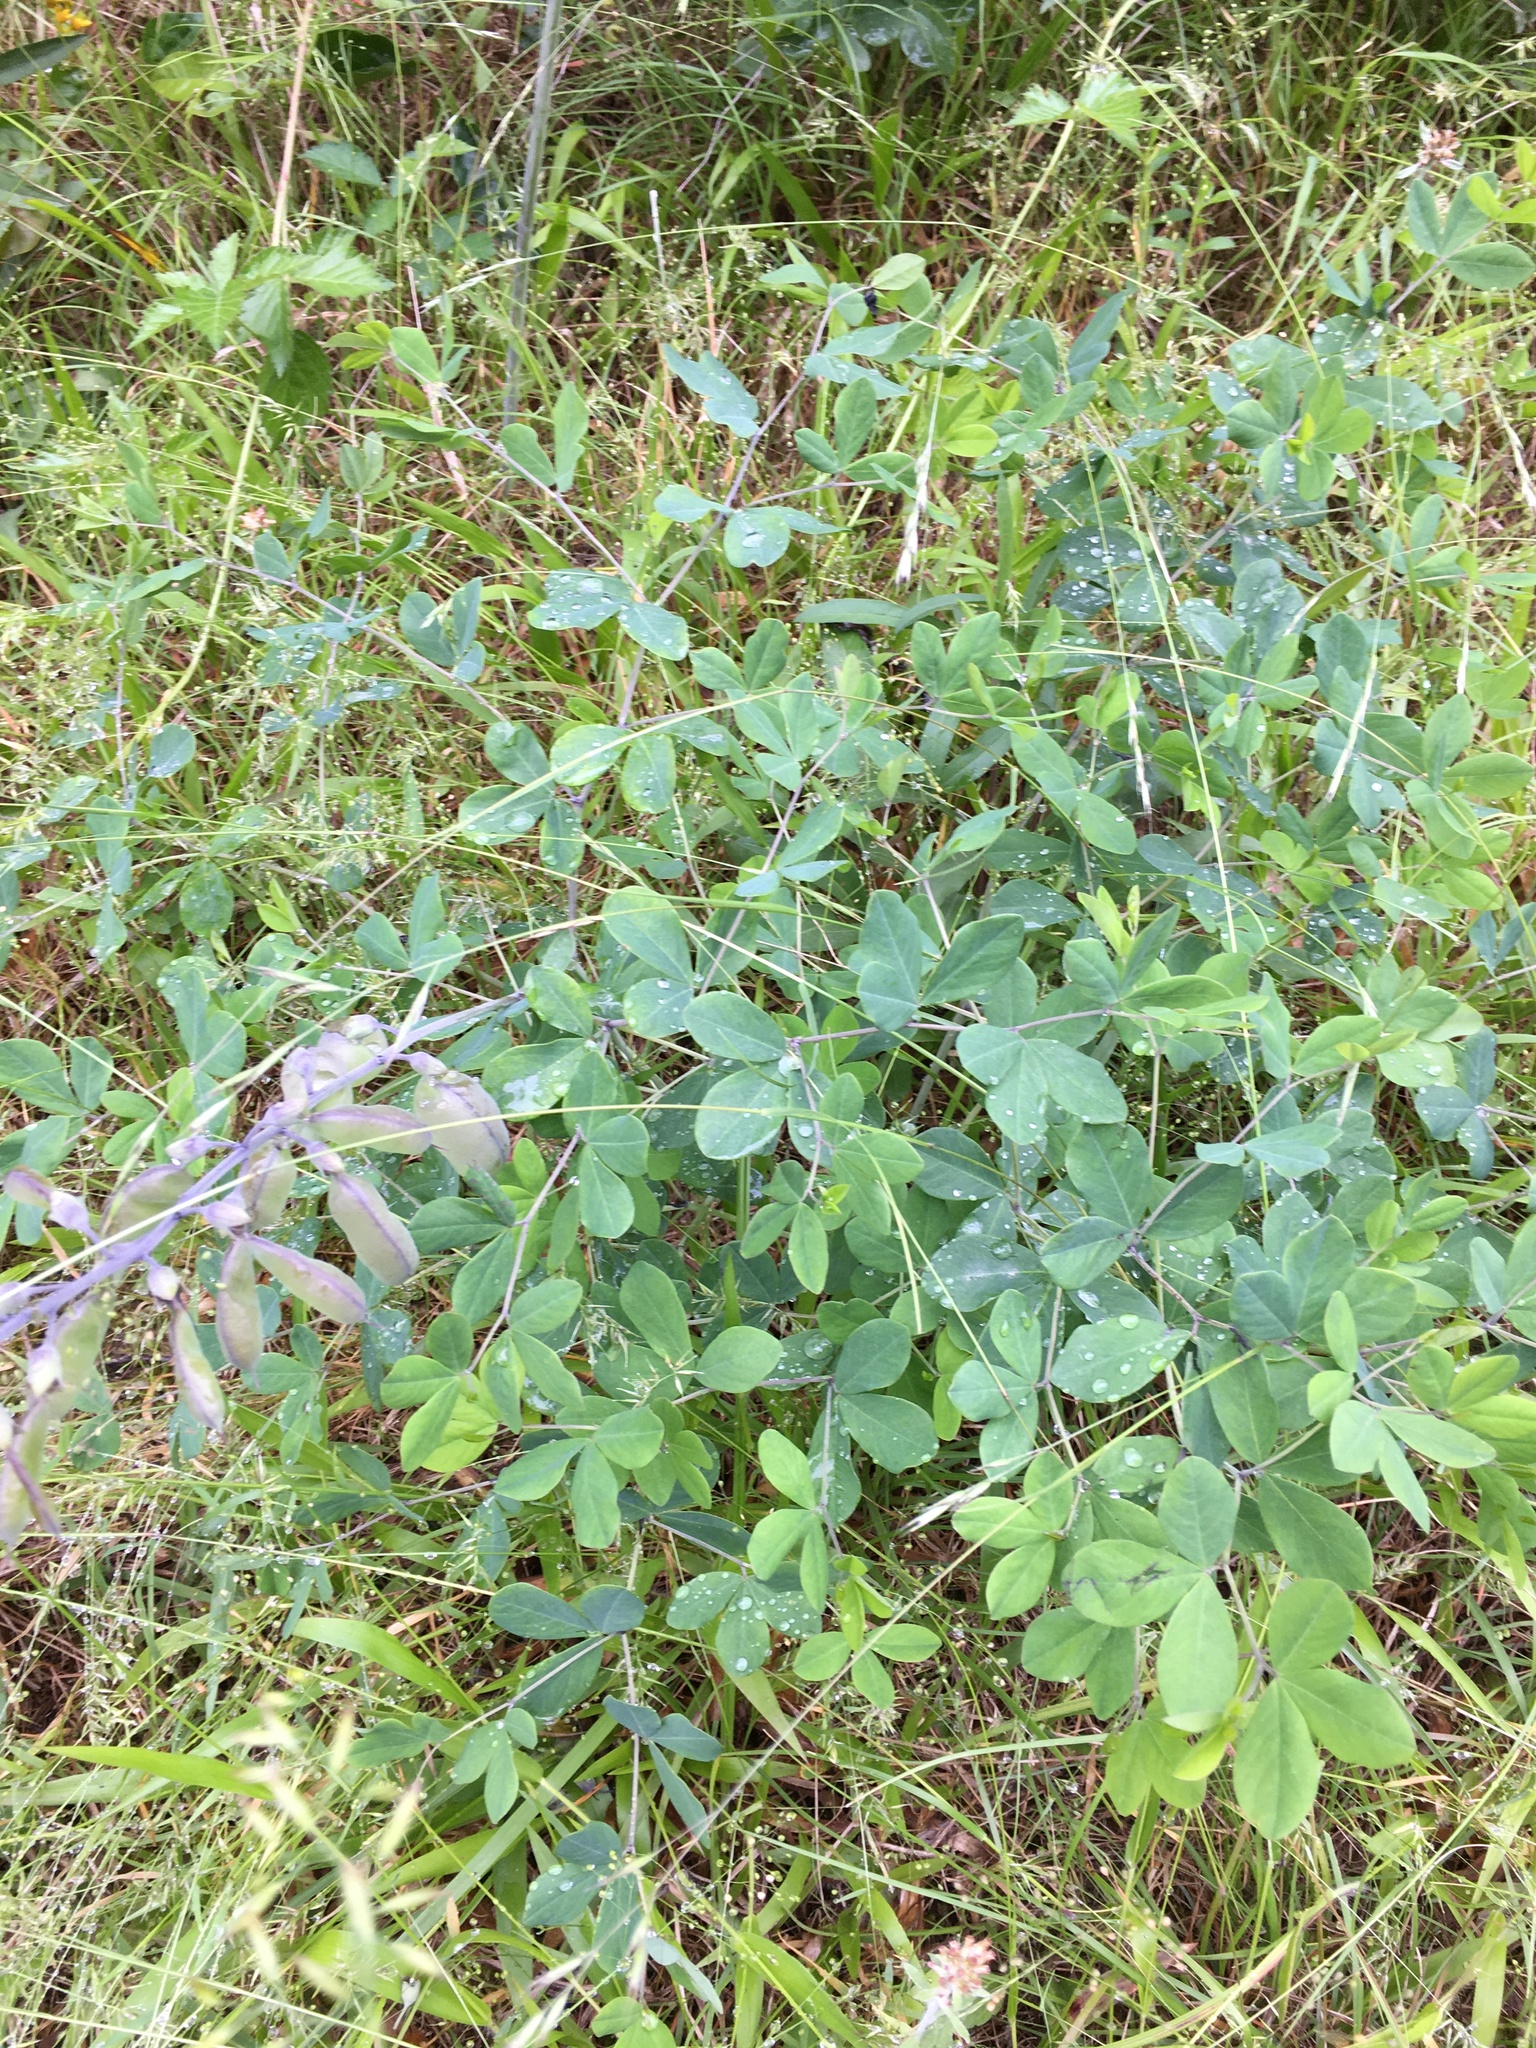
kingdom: Plantae
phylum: Tracheophyta
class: Magnoliopsida
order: Fabales
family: Fabaceae
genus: Baptisia
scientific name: Baptisia alba
